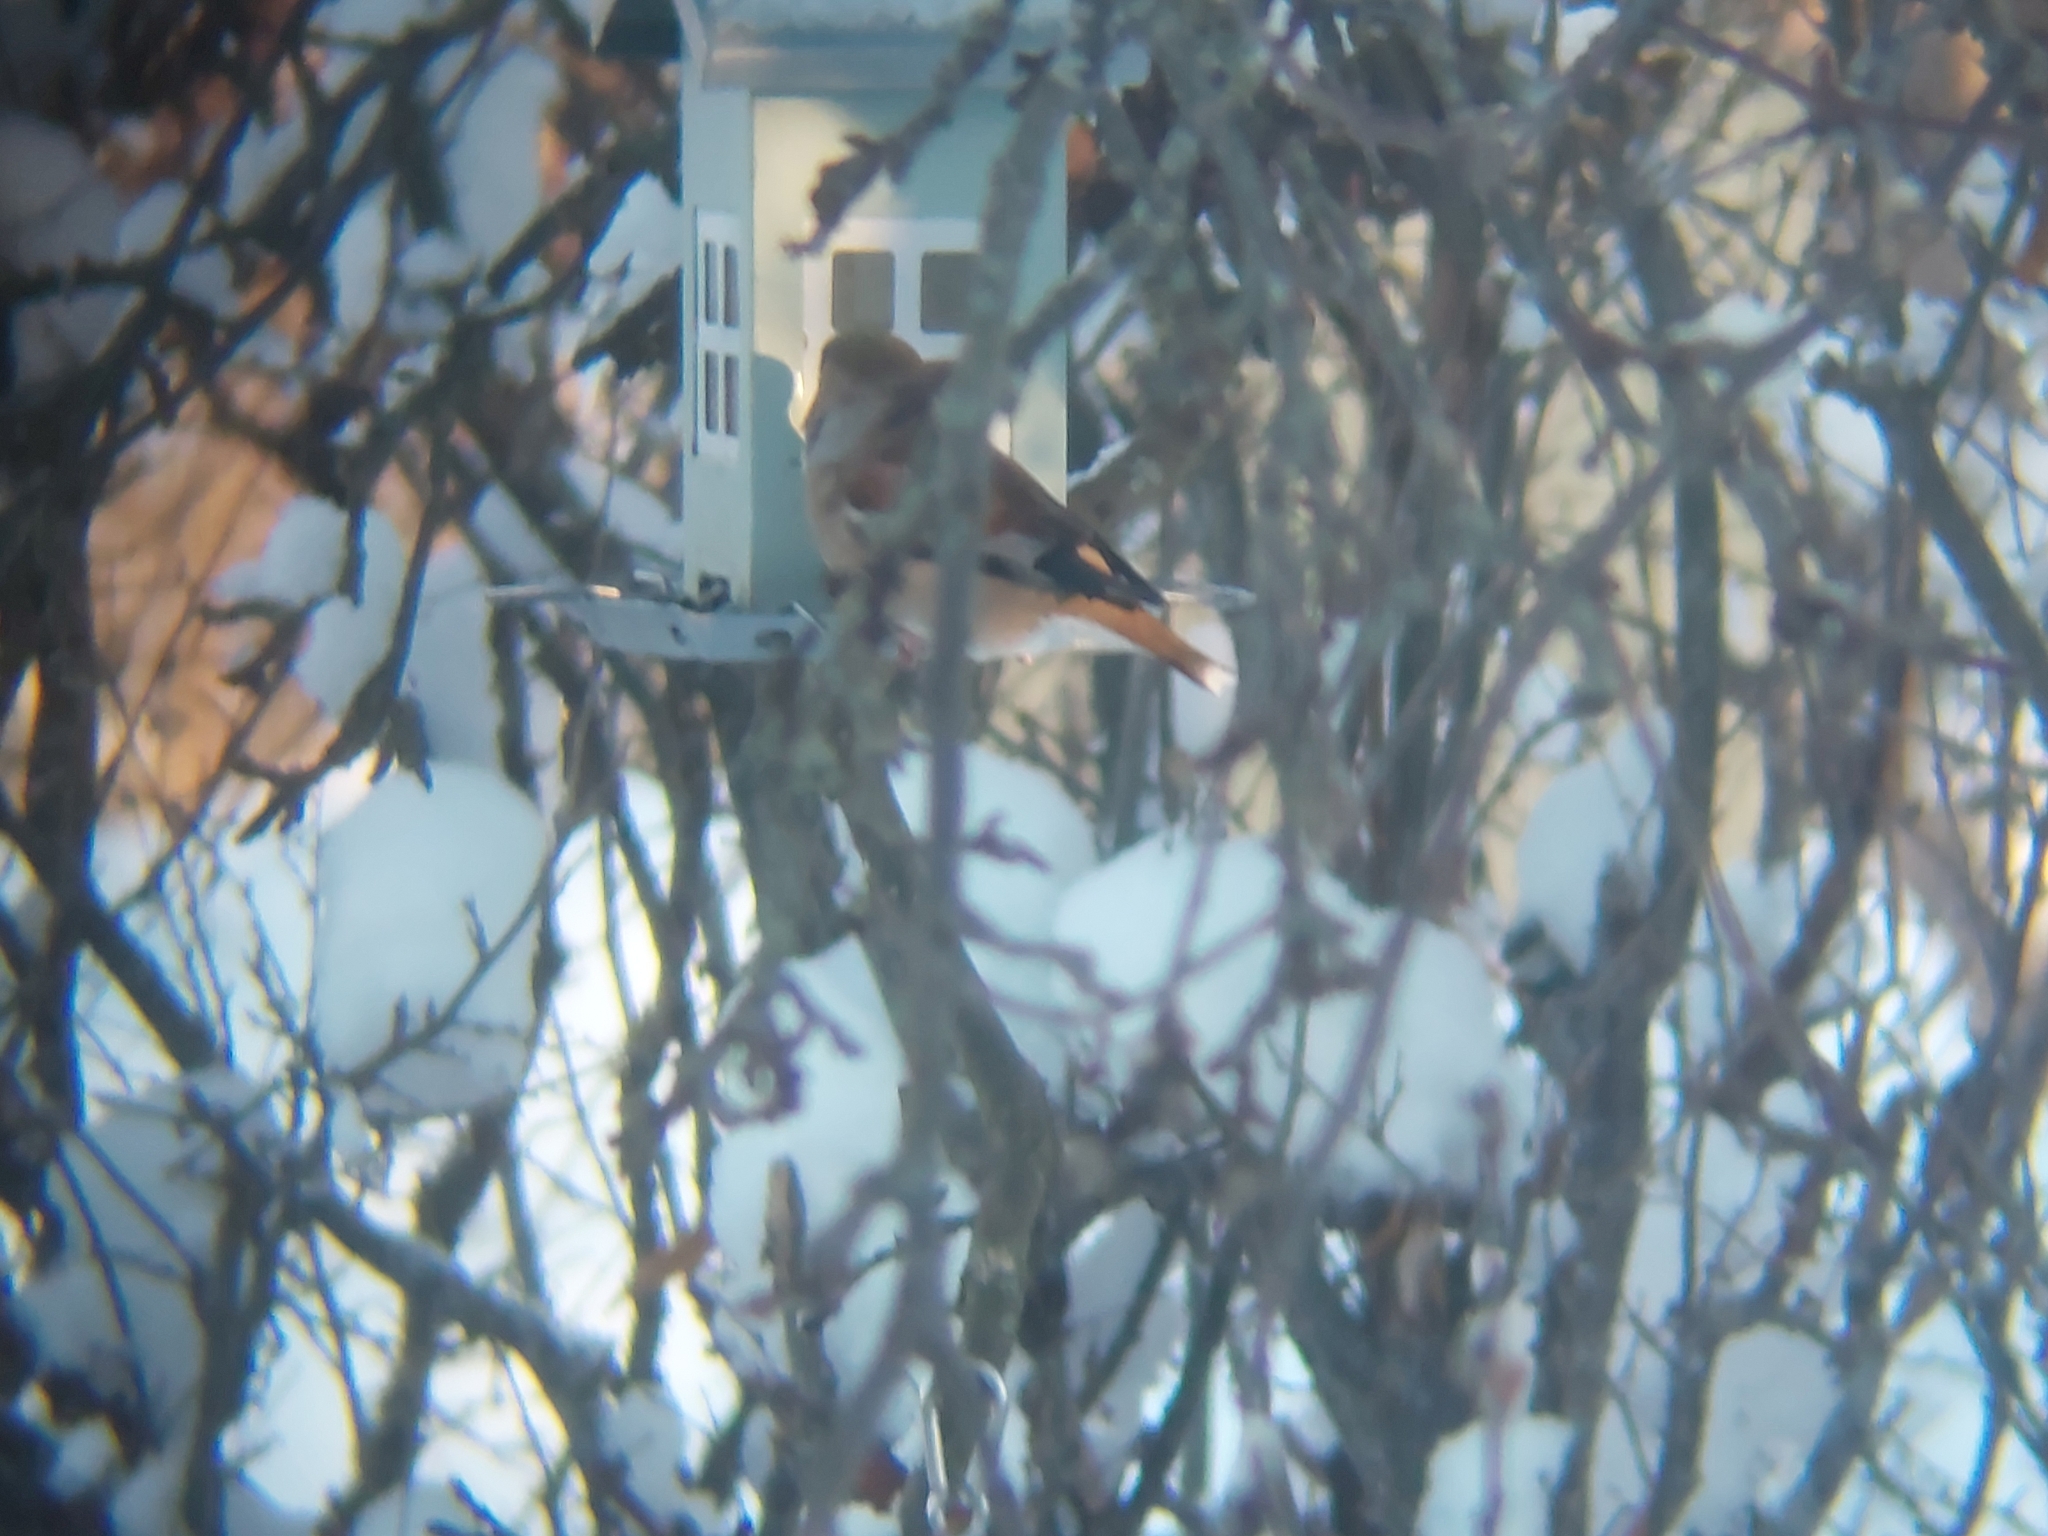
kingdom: Animalia
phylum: Chordata
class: Aves
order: Passeriformes
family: Fringillidae
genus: Coccothraustes
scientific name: Coccothraustes coccothraustes
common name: Hawfinch
